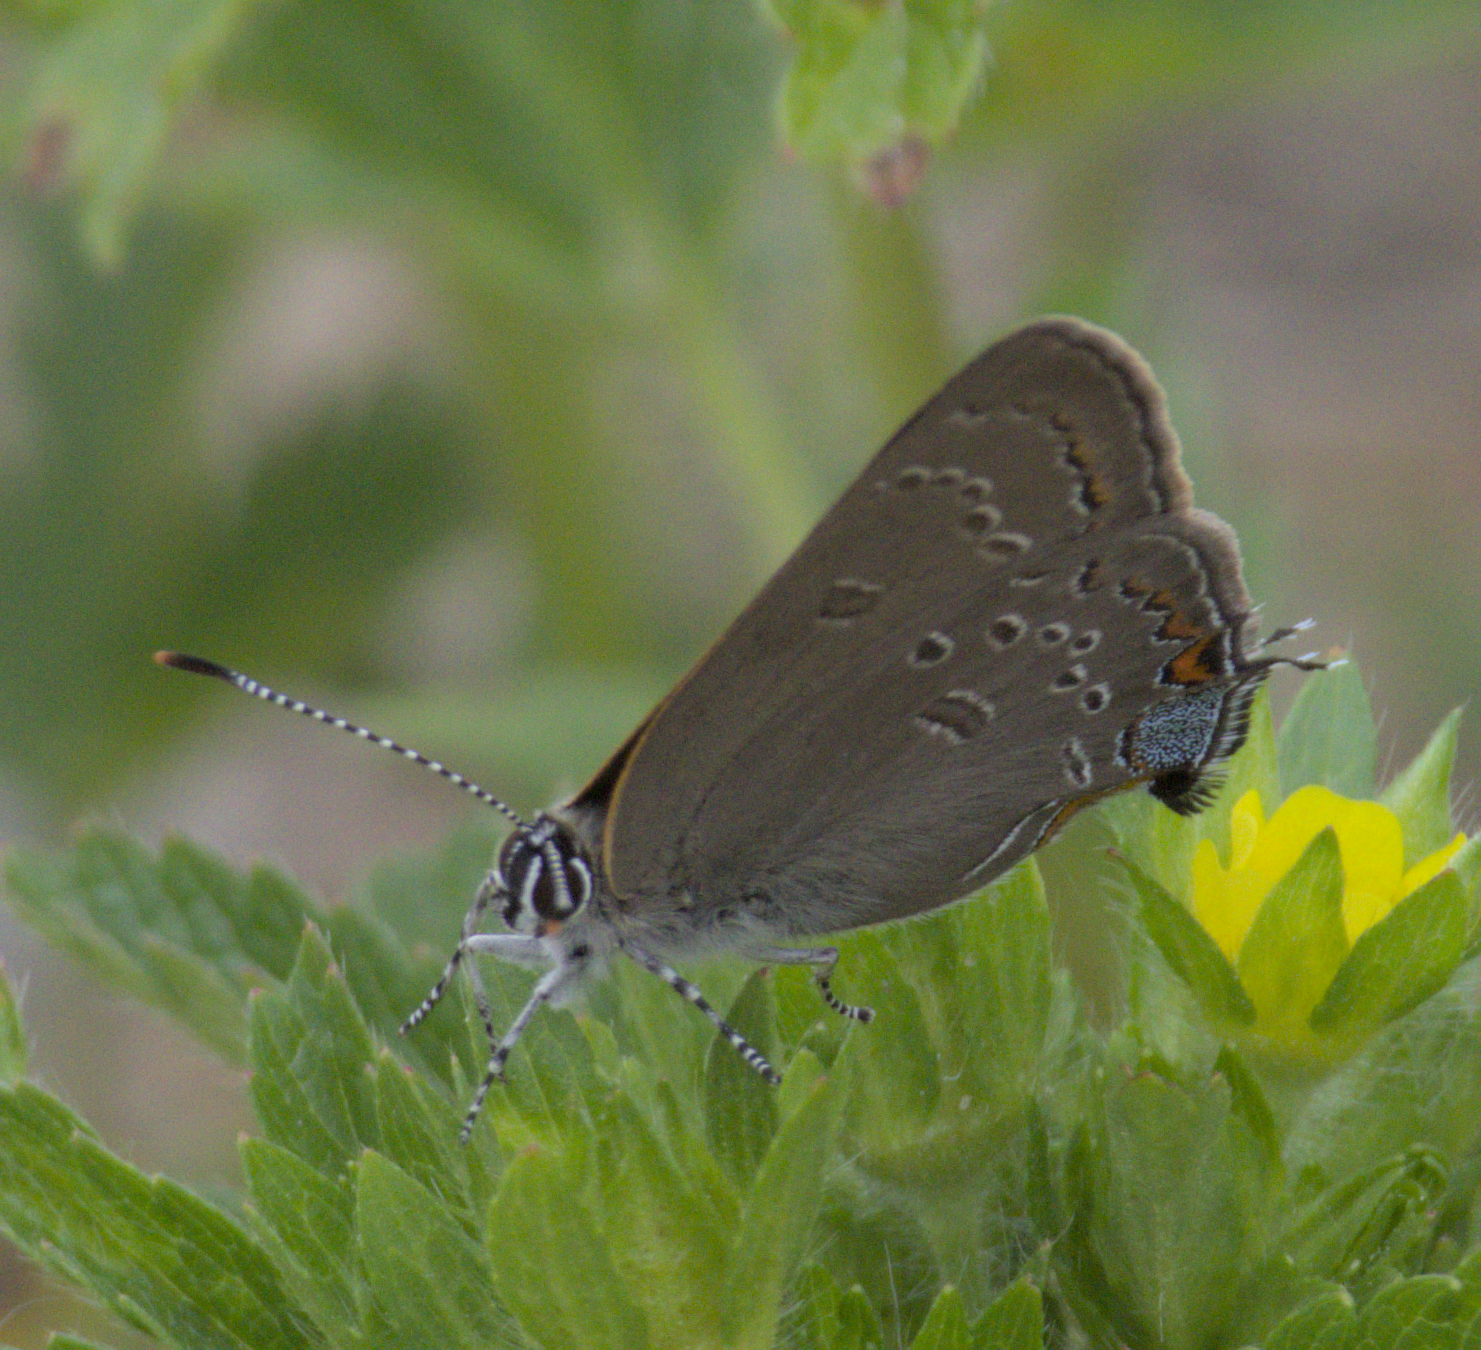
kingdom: Animalia
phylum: Arthropoda
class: Insecta
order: Lepidoptera
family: Lycaenidae
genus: Satyrium
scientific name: Satyrium edwardsii
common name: Edwards' hairstreak
